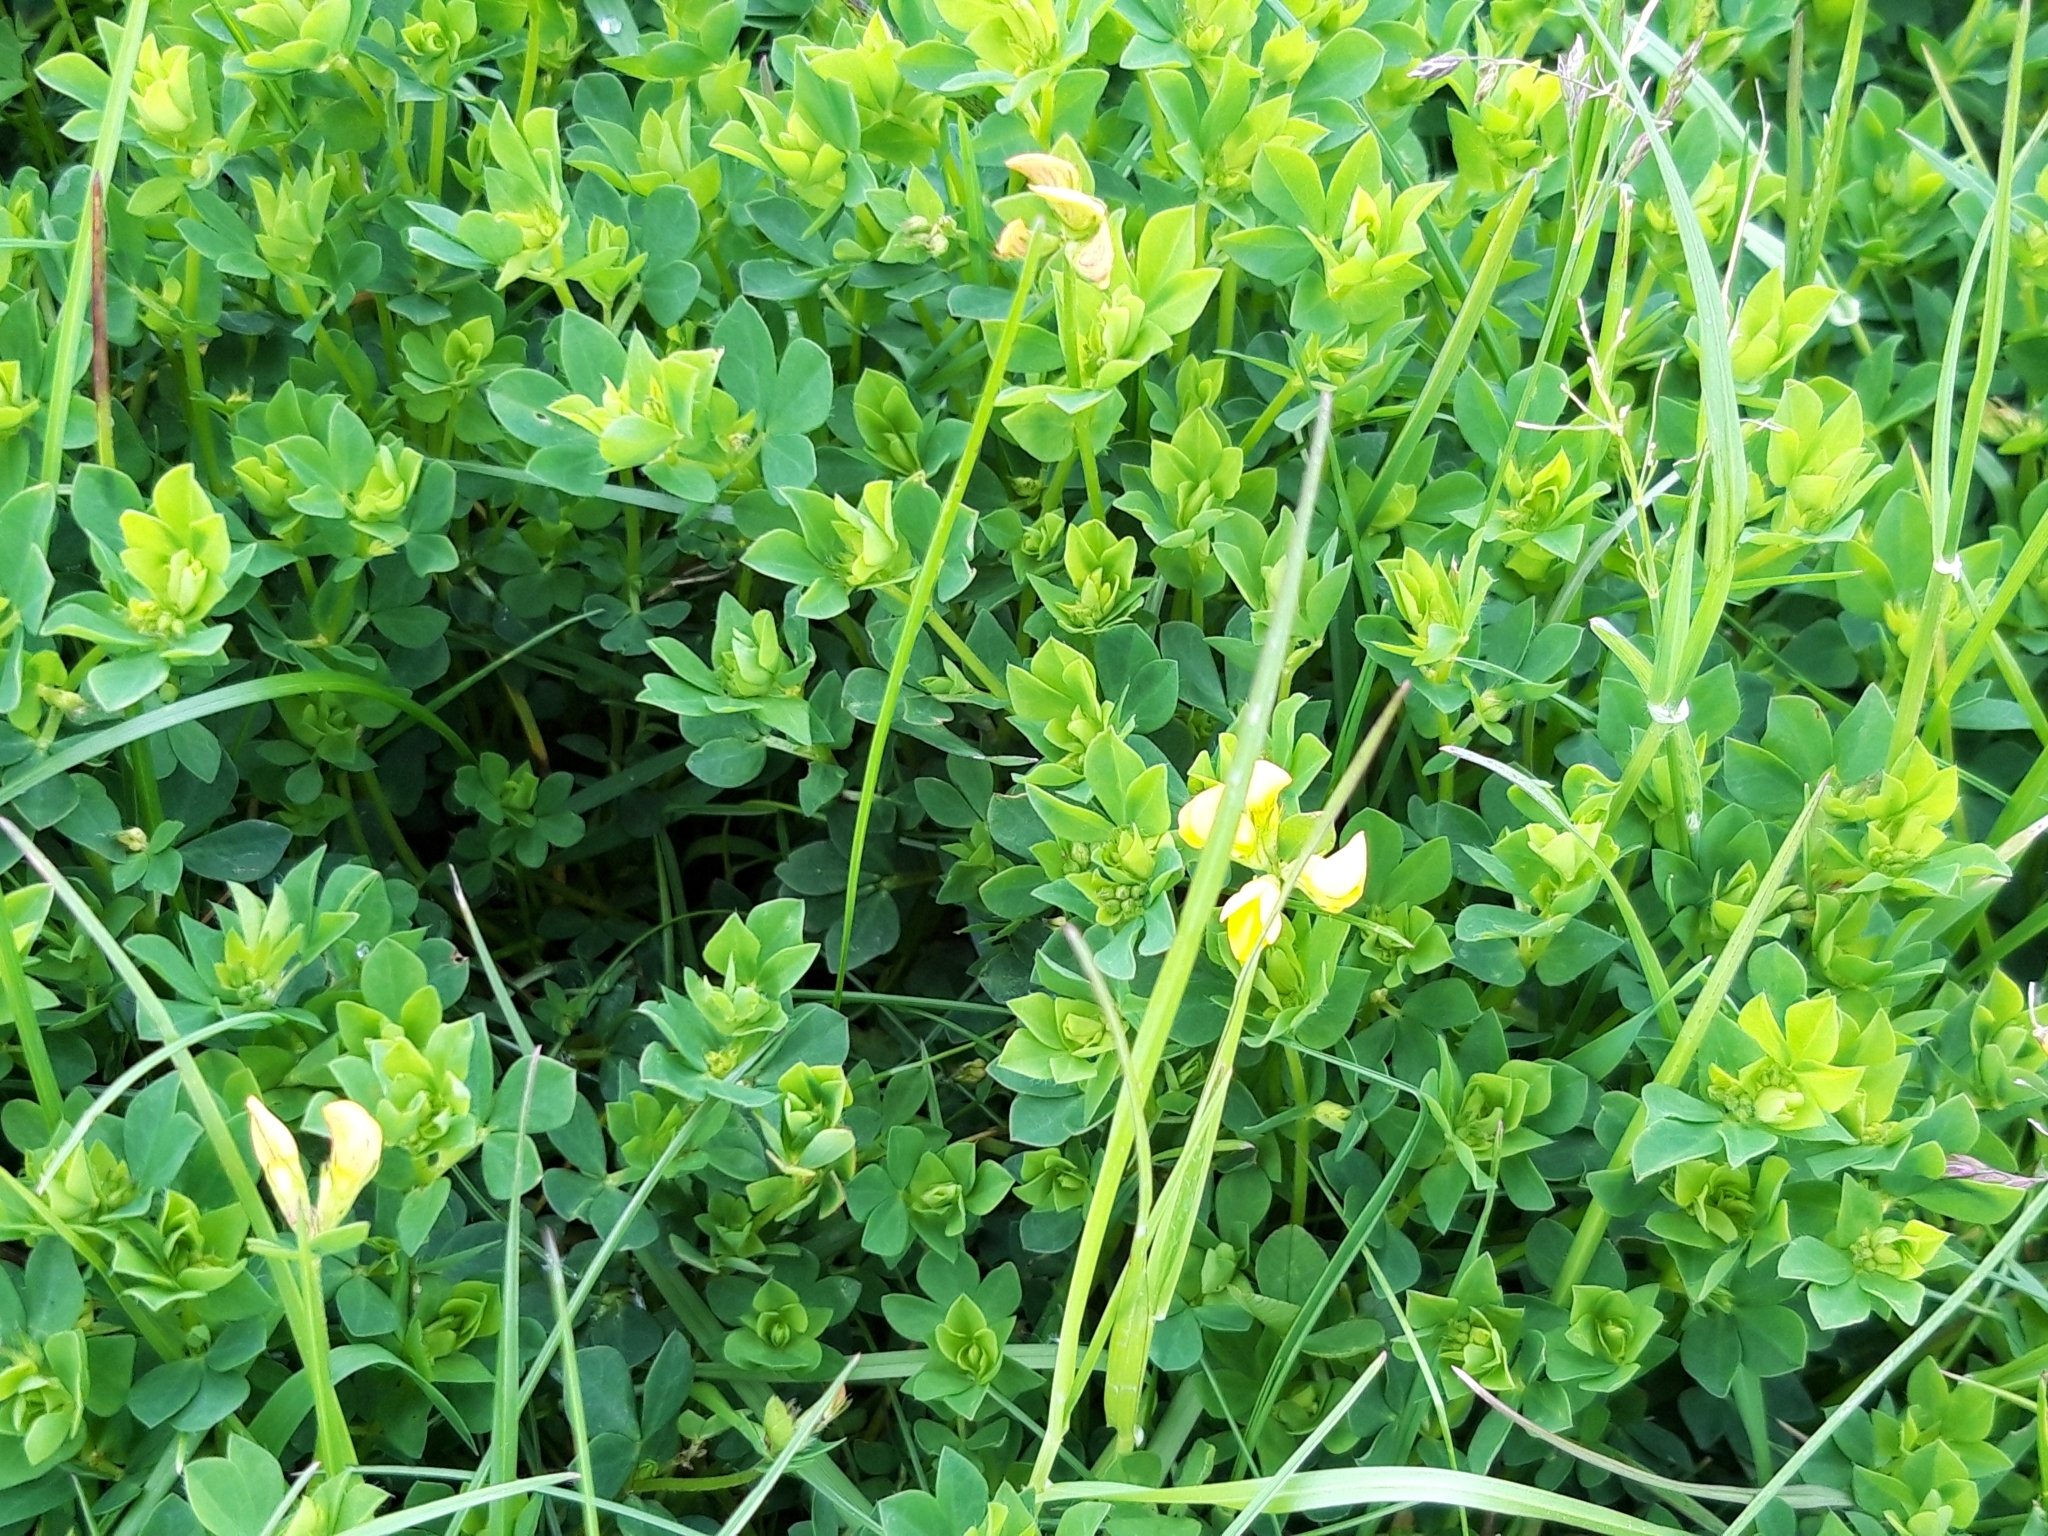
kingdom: Plantae
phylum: Tracheophyta
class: Magnoliopsida
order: Fabales
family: Fabaceae
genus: Lotus
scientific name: Lotus corniculatus
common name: Common bird's-foot-trefoil
